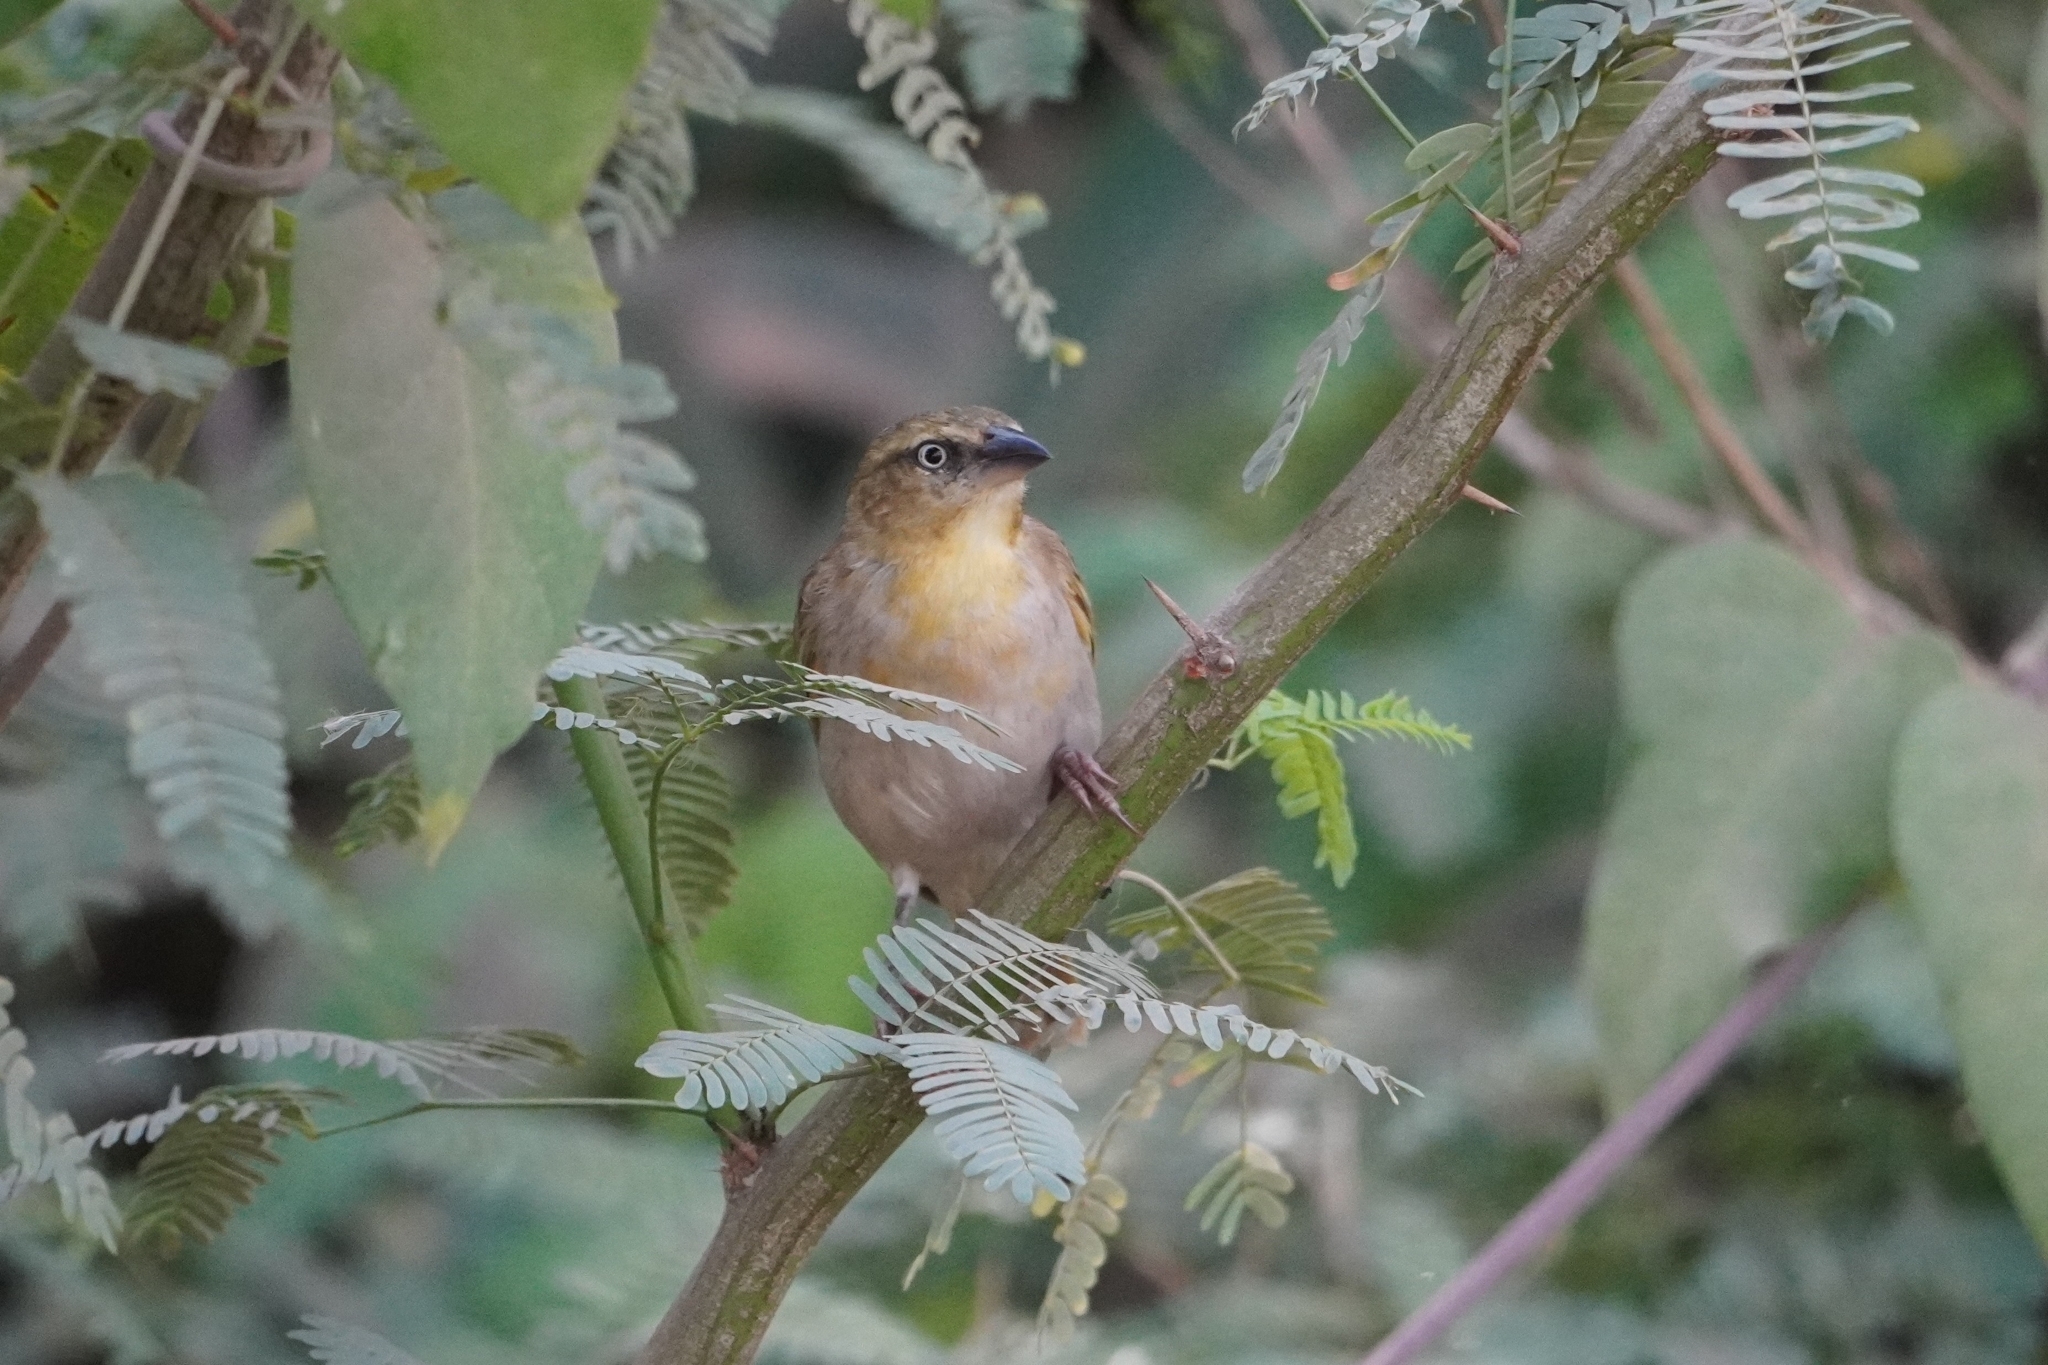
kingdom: Animalia
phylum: Chordata
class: Aves
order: Passeriformes
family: Ploceidae
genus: Ploceus
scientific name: Ploceus melanocephalus
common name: Black-headed weaver
